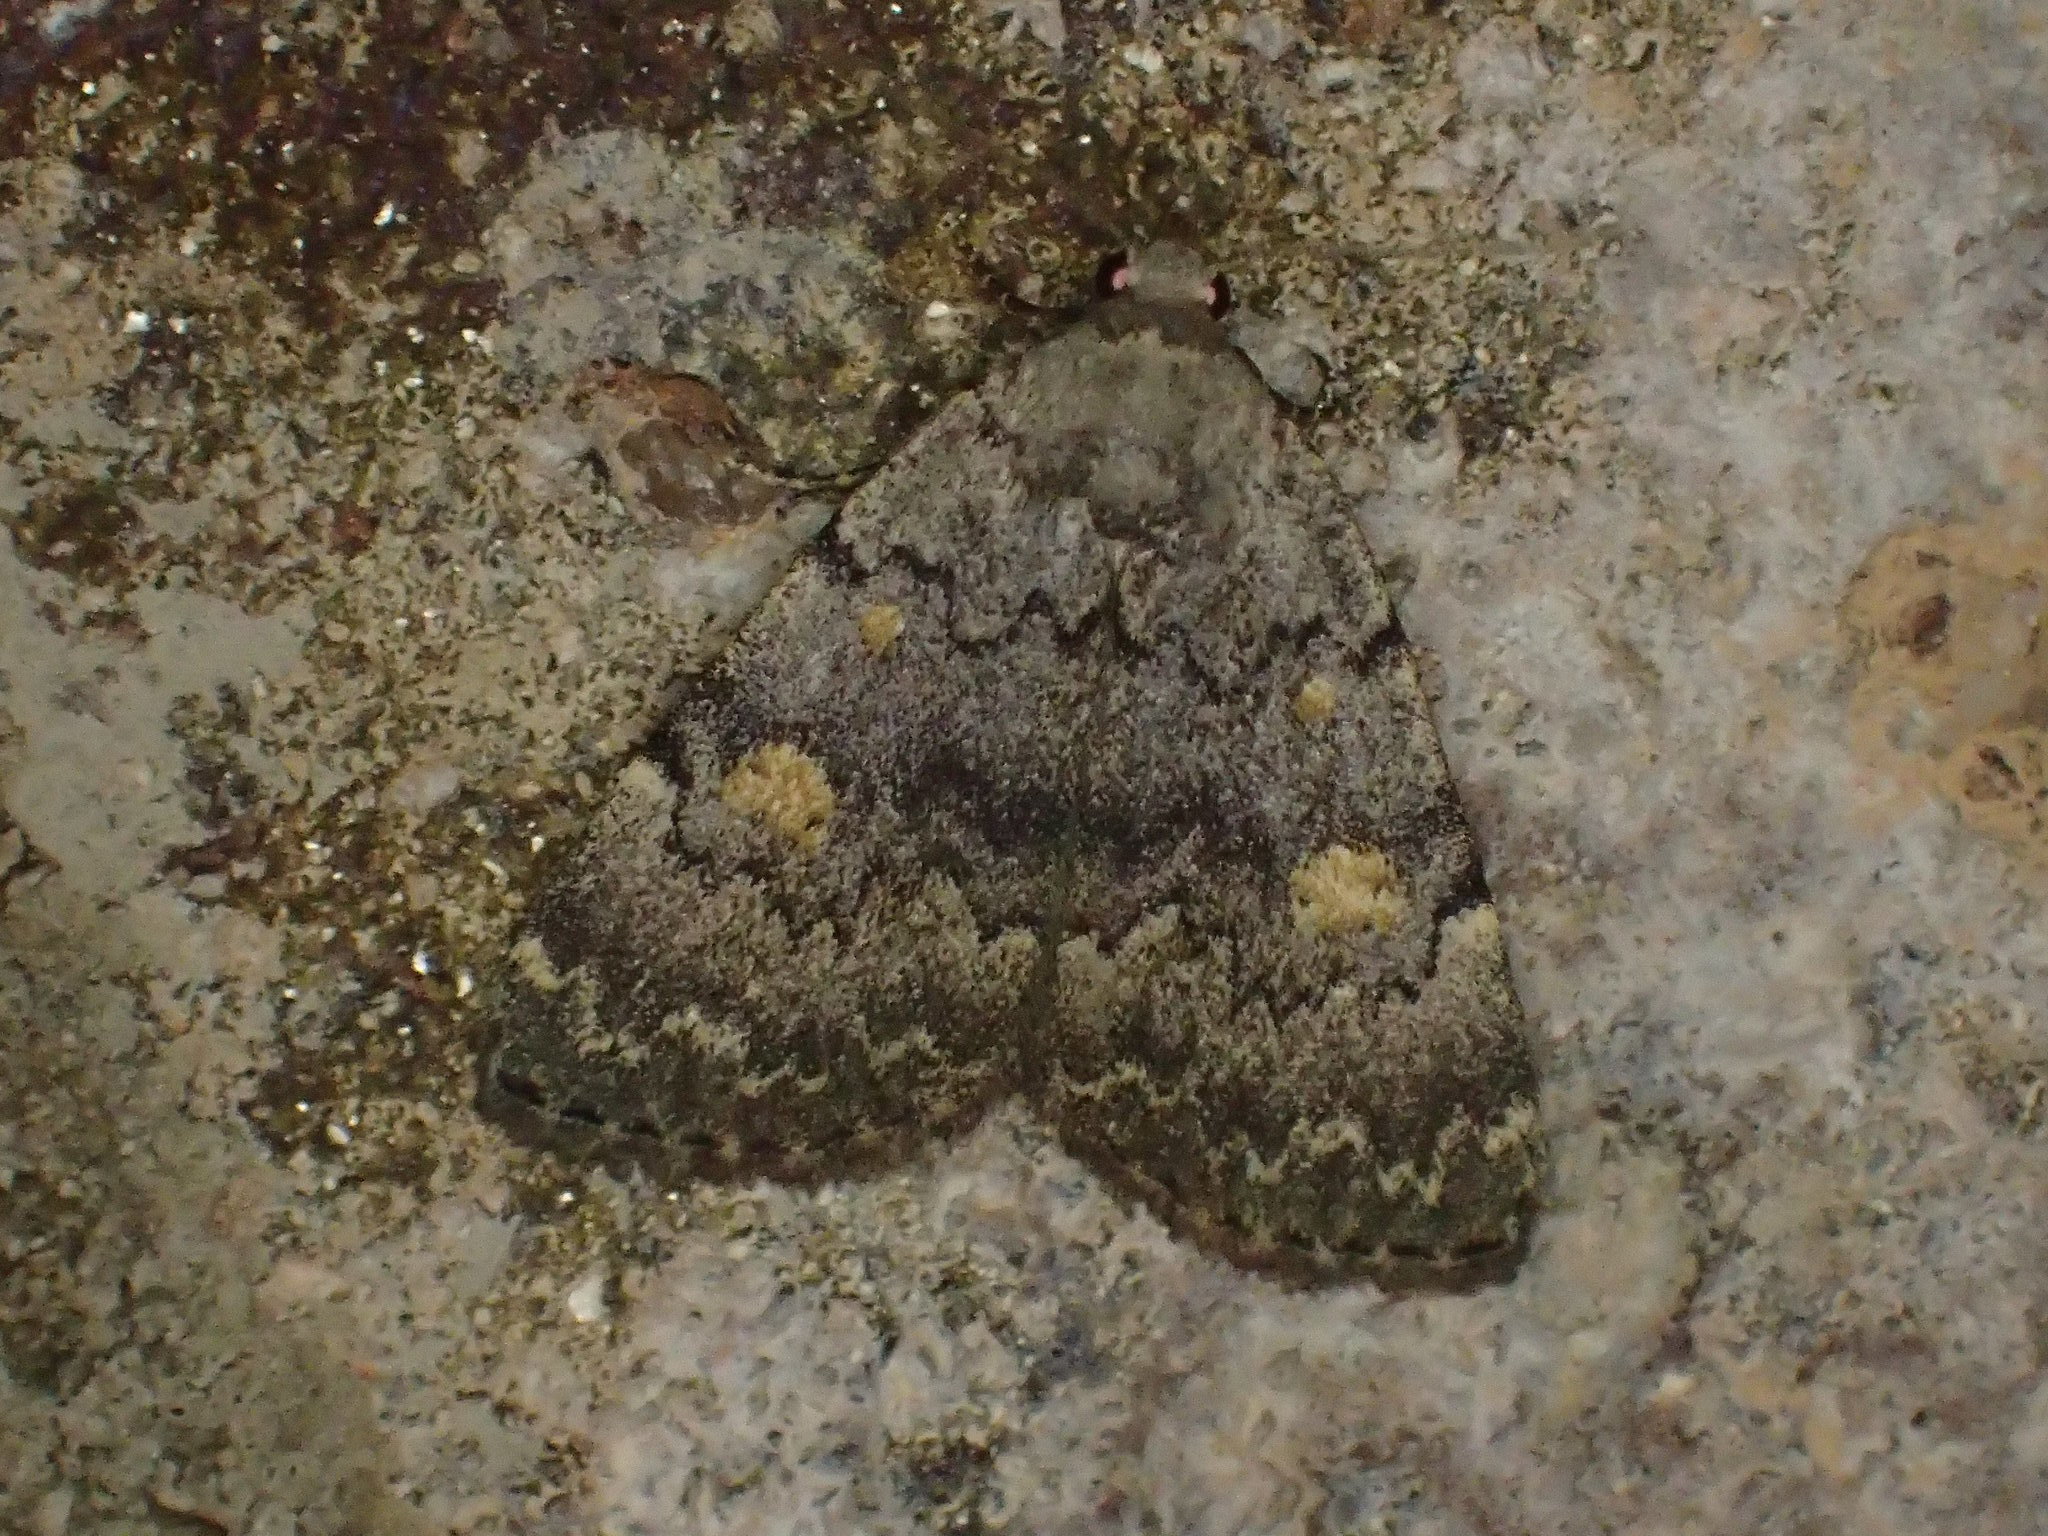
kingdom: Animalia
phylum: Arthropoda
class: Insecta
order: Lepidoptera
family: Erebidae
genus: Idia
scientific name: Idia aemula
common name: Common idia moth
